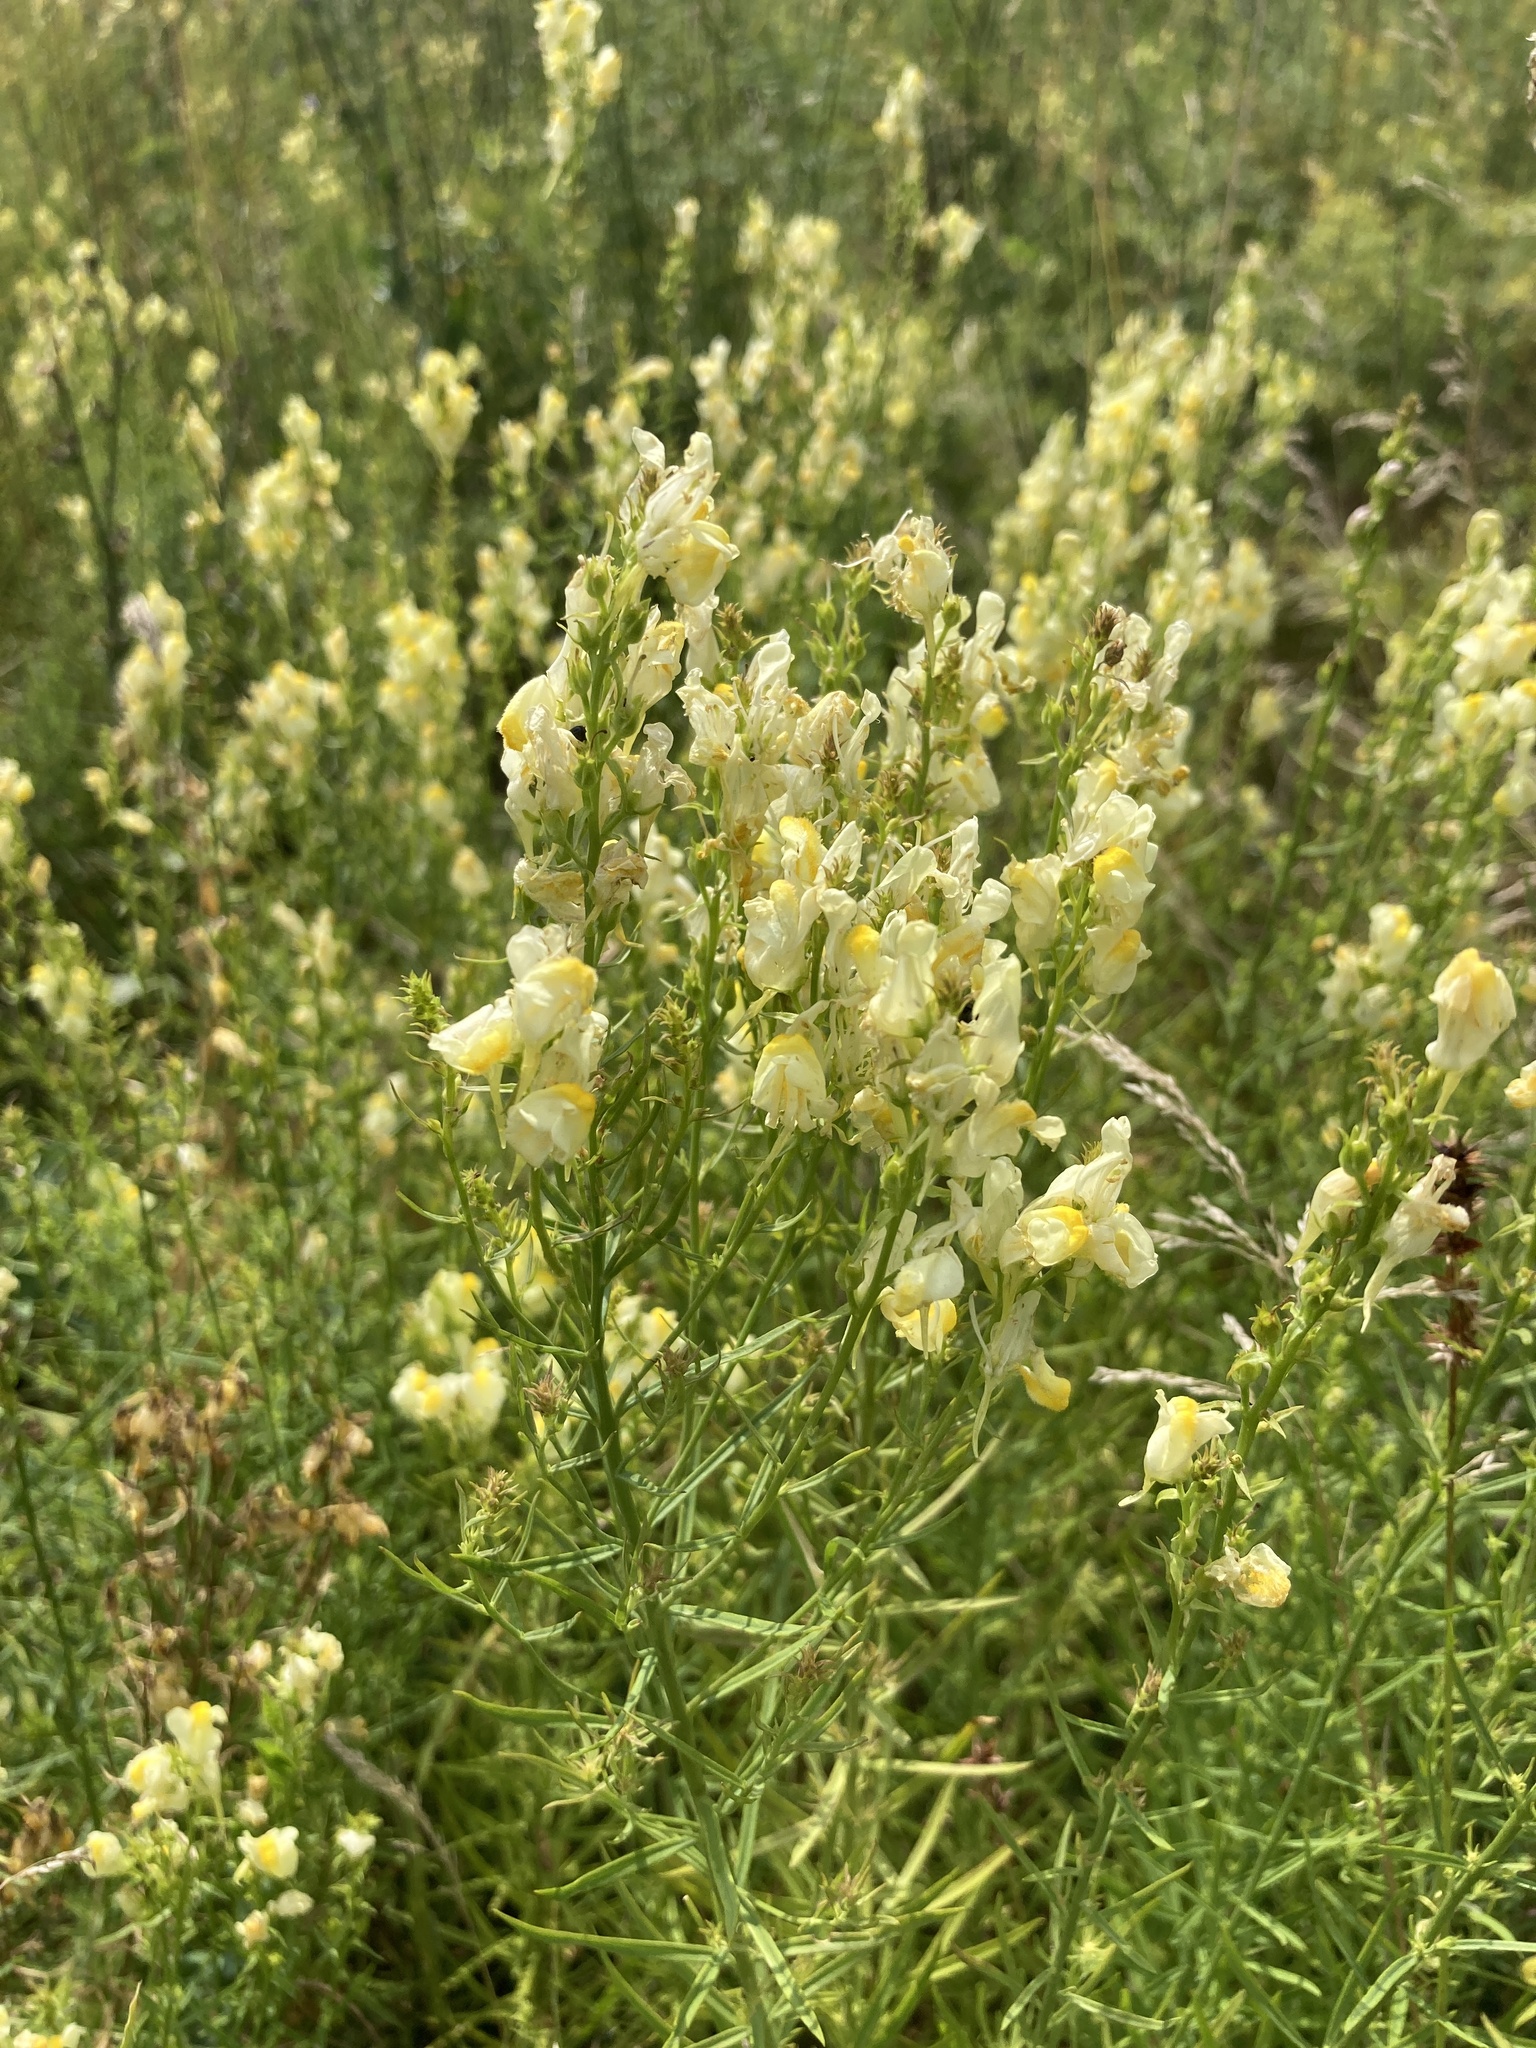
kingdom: Plantae
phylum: Tracheophyta
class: Magnoliopsida
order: Lamiales
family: Plantaginaceae
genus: Linaria
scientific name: Linaria vulgaris
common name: Butter and eggs
